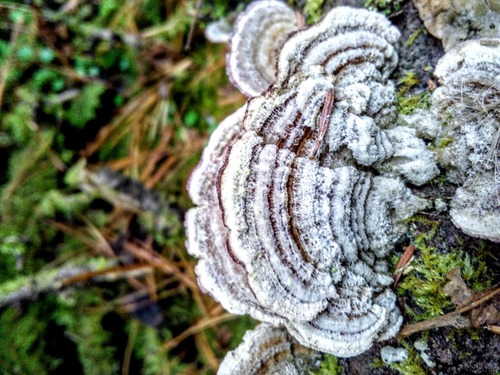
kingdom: Fungi
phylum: Basidiomycota
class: Agaricomycetes
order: Hymenochaetales
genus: Trichaptum
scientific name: Trichaptum
